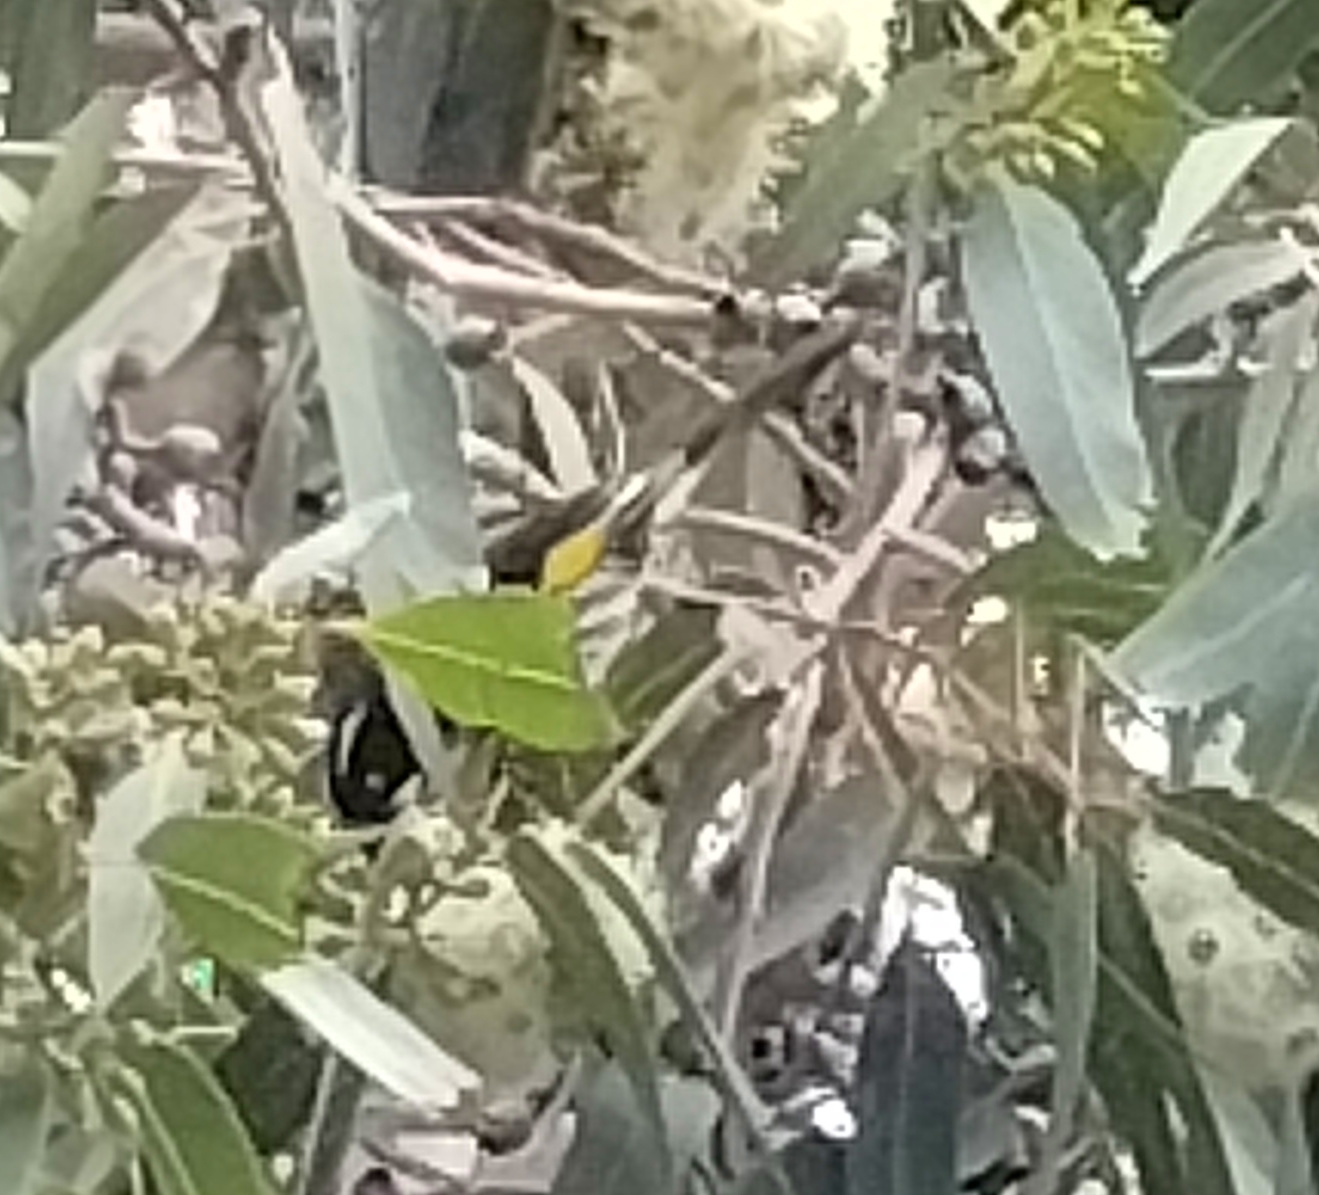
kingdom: Animalia
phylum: Chordata
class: Aves
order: Passeriformes
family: Meliphagidae
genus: Phylidonyris
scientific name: Phylidonyris novaehollandiae
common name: New holland honeyeater
